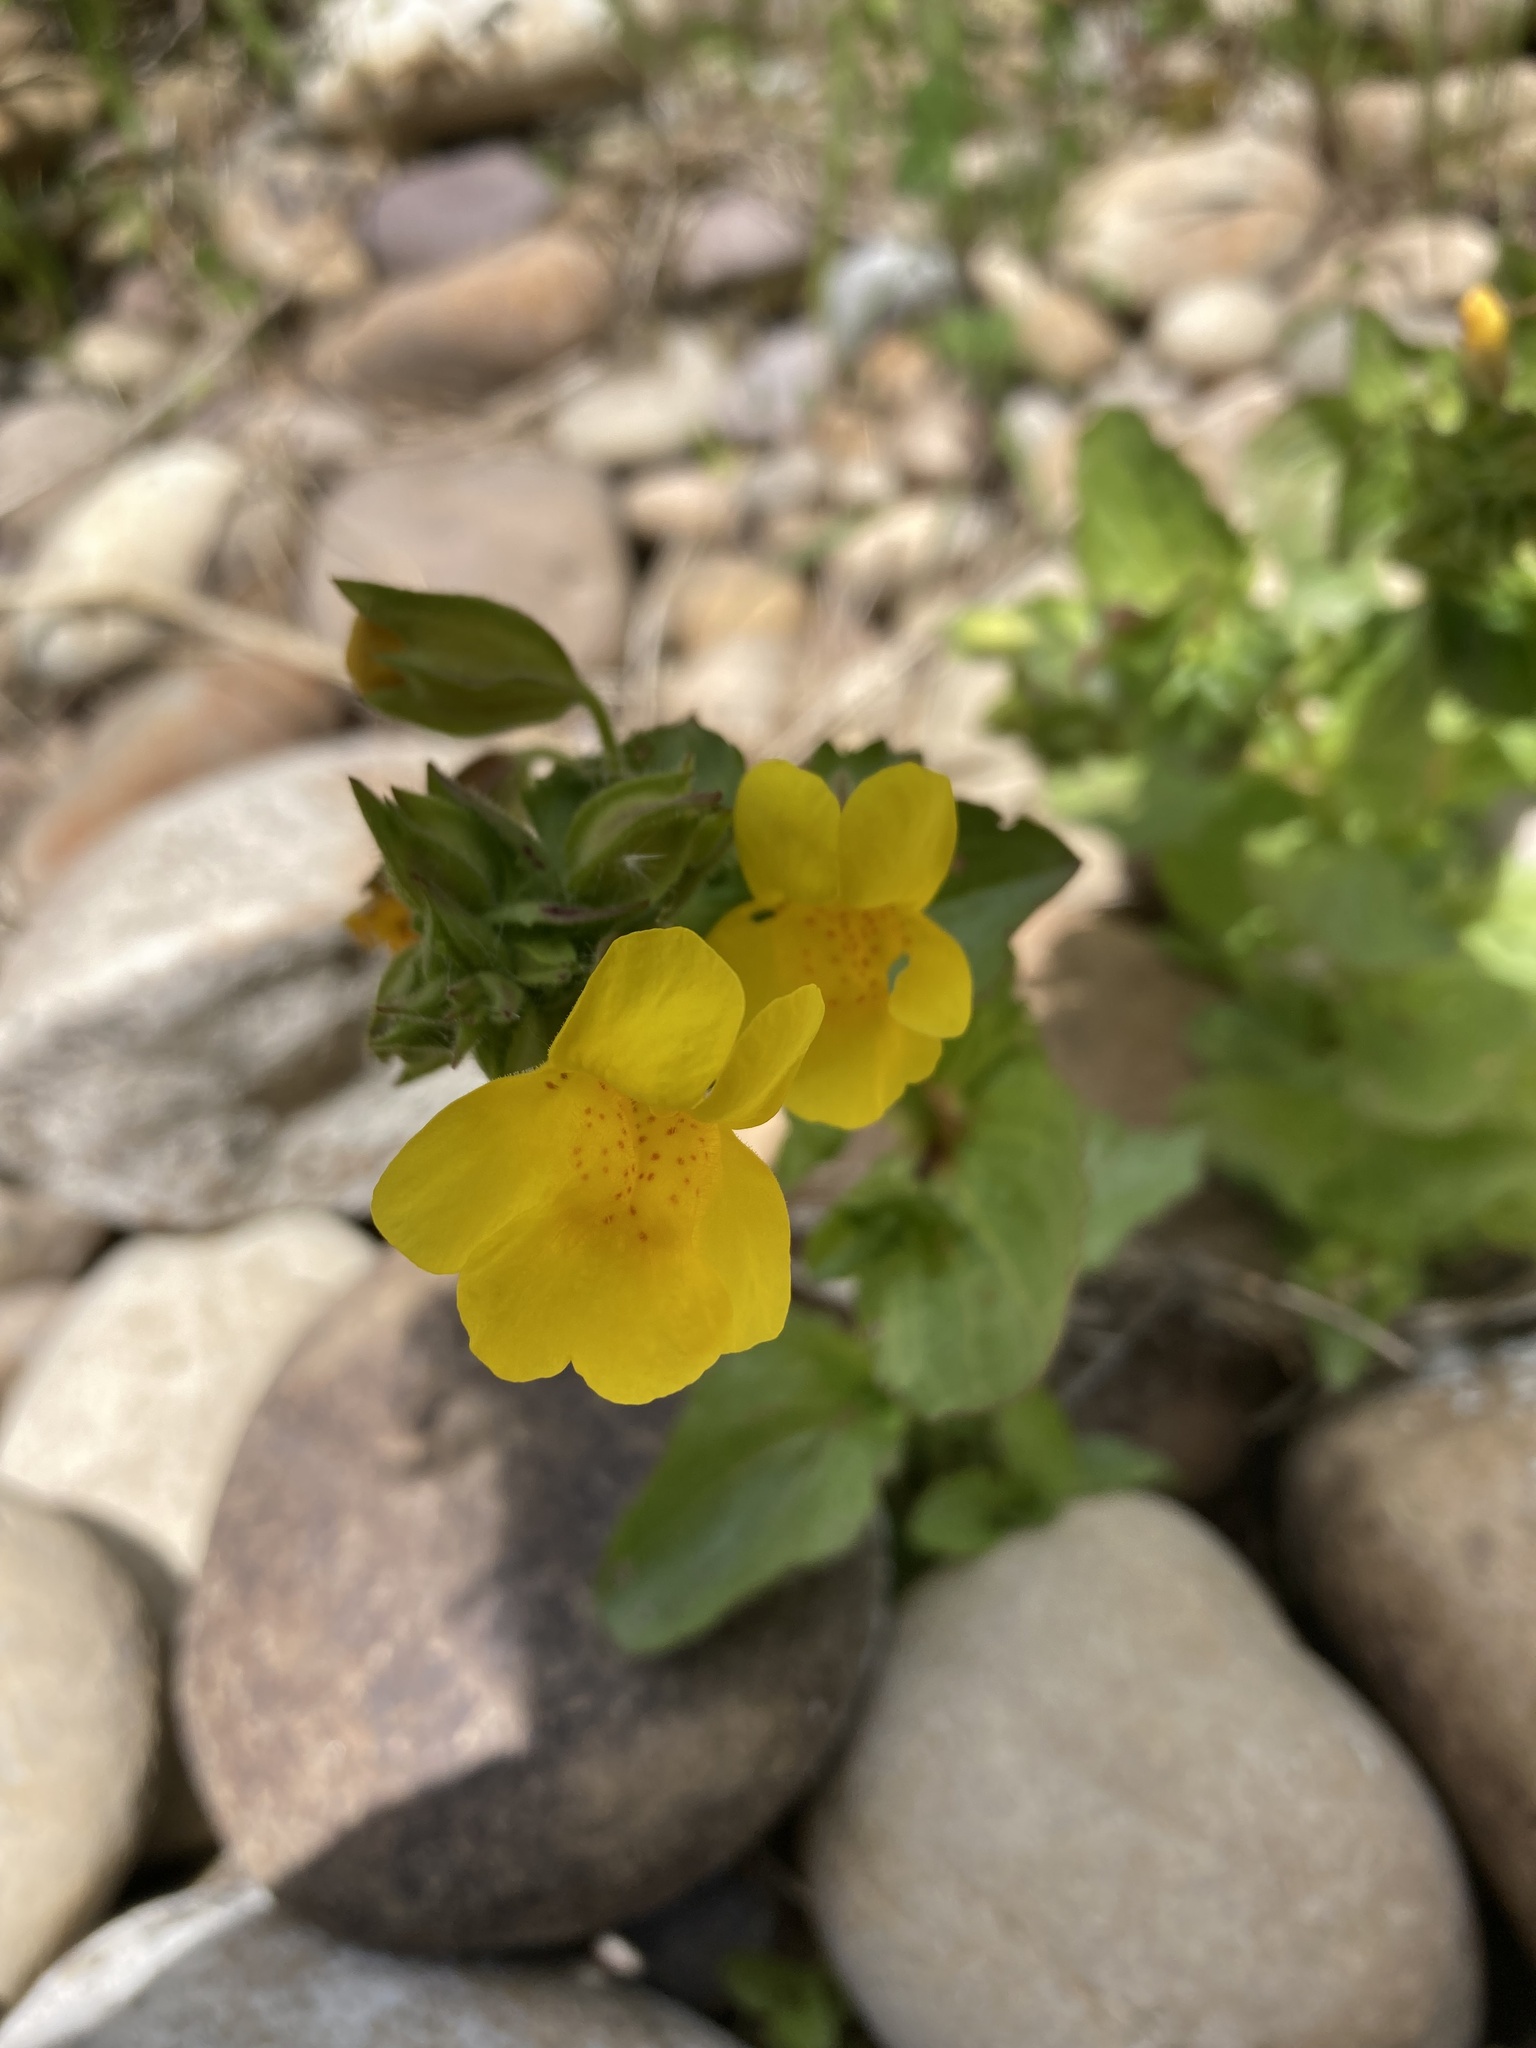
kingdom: Plantae
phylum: Tracheophyta
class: Magnoliopsida
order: Lamiales
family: Phrymaceae
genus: Erythranthe
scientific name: Erythranthe guttata
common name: Monkeyflower
